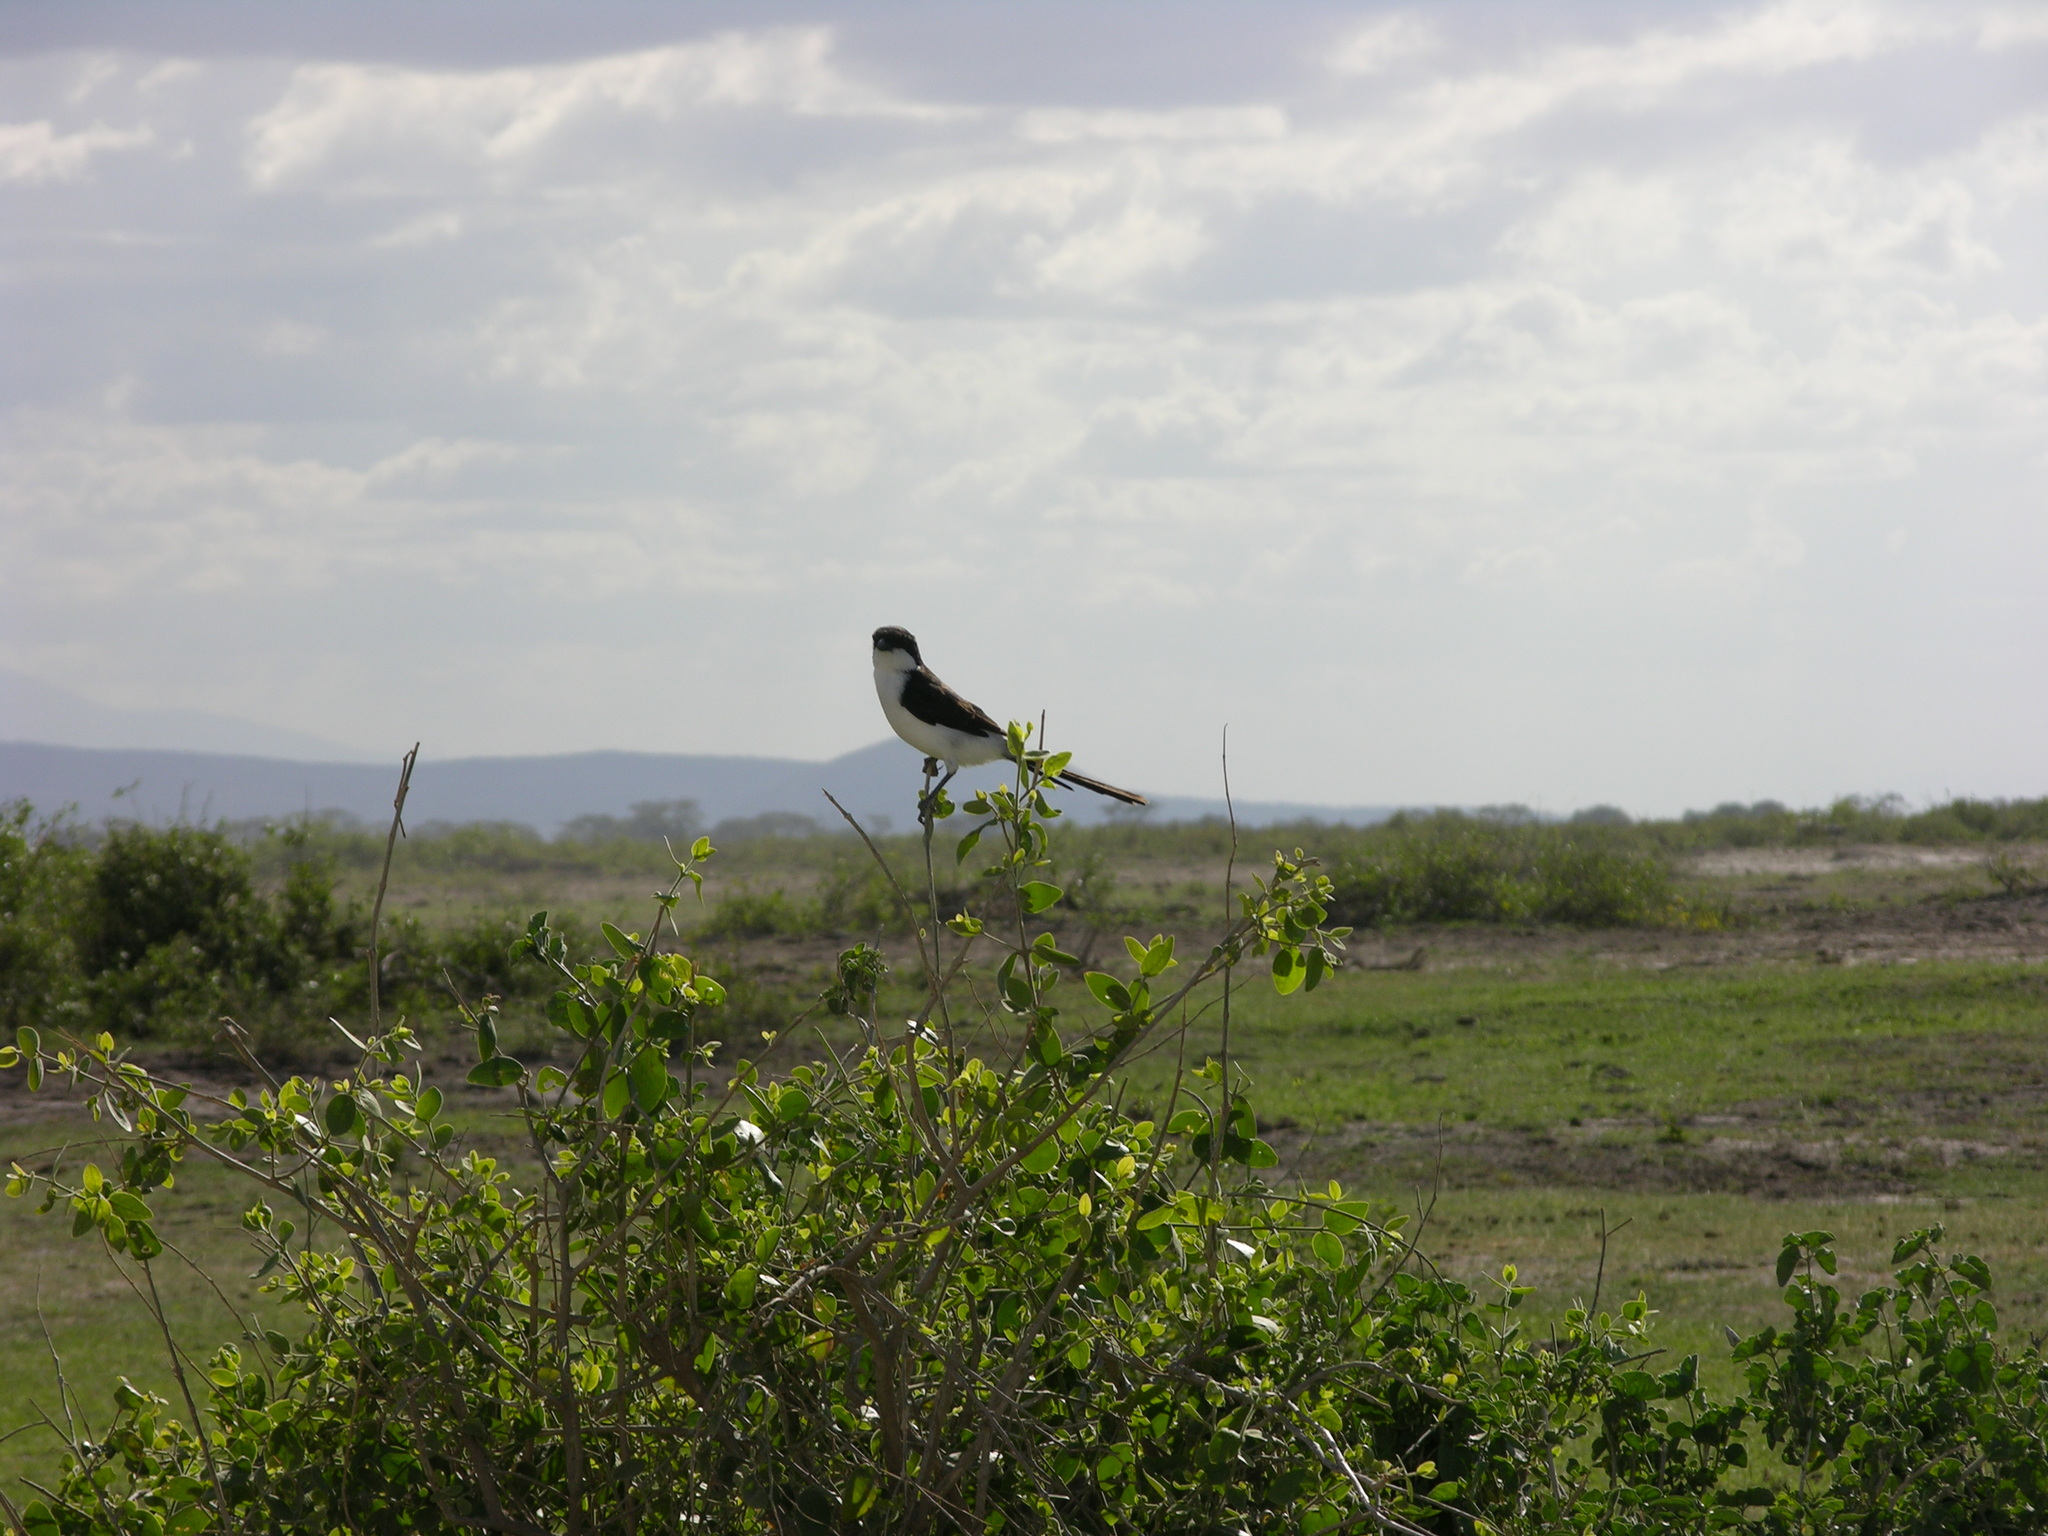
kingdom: Animalia
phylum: Chordata
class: Aves
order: Passeriformes
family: Laniidae
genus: Lanius
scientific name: Lanius cabanisi
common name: Long-tailed fiscal
